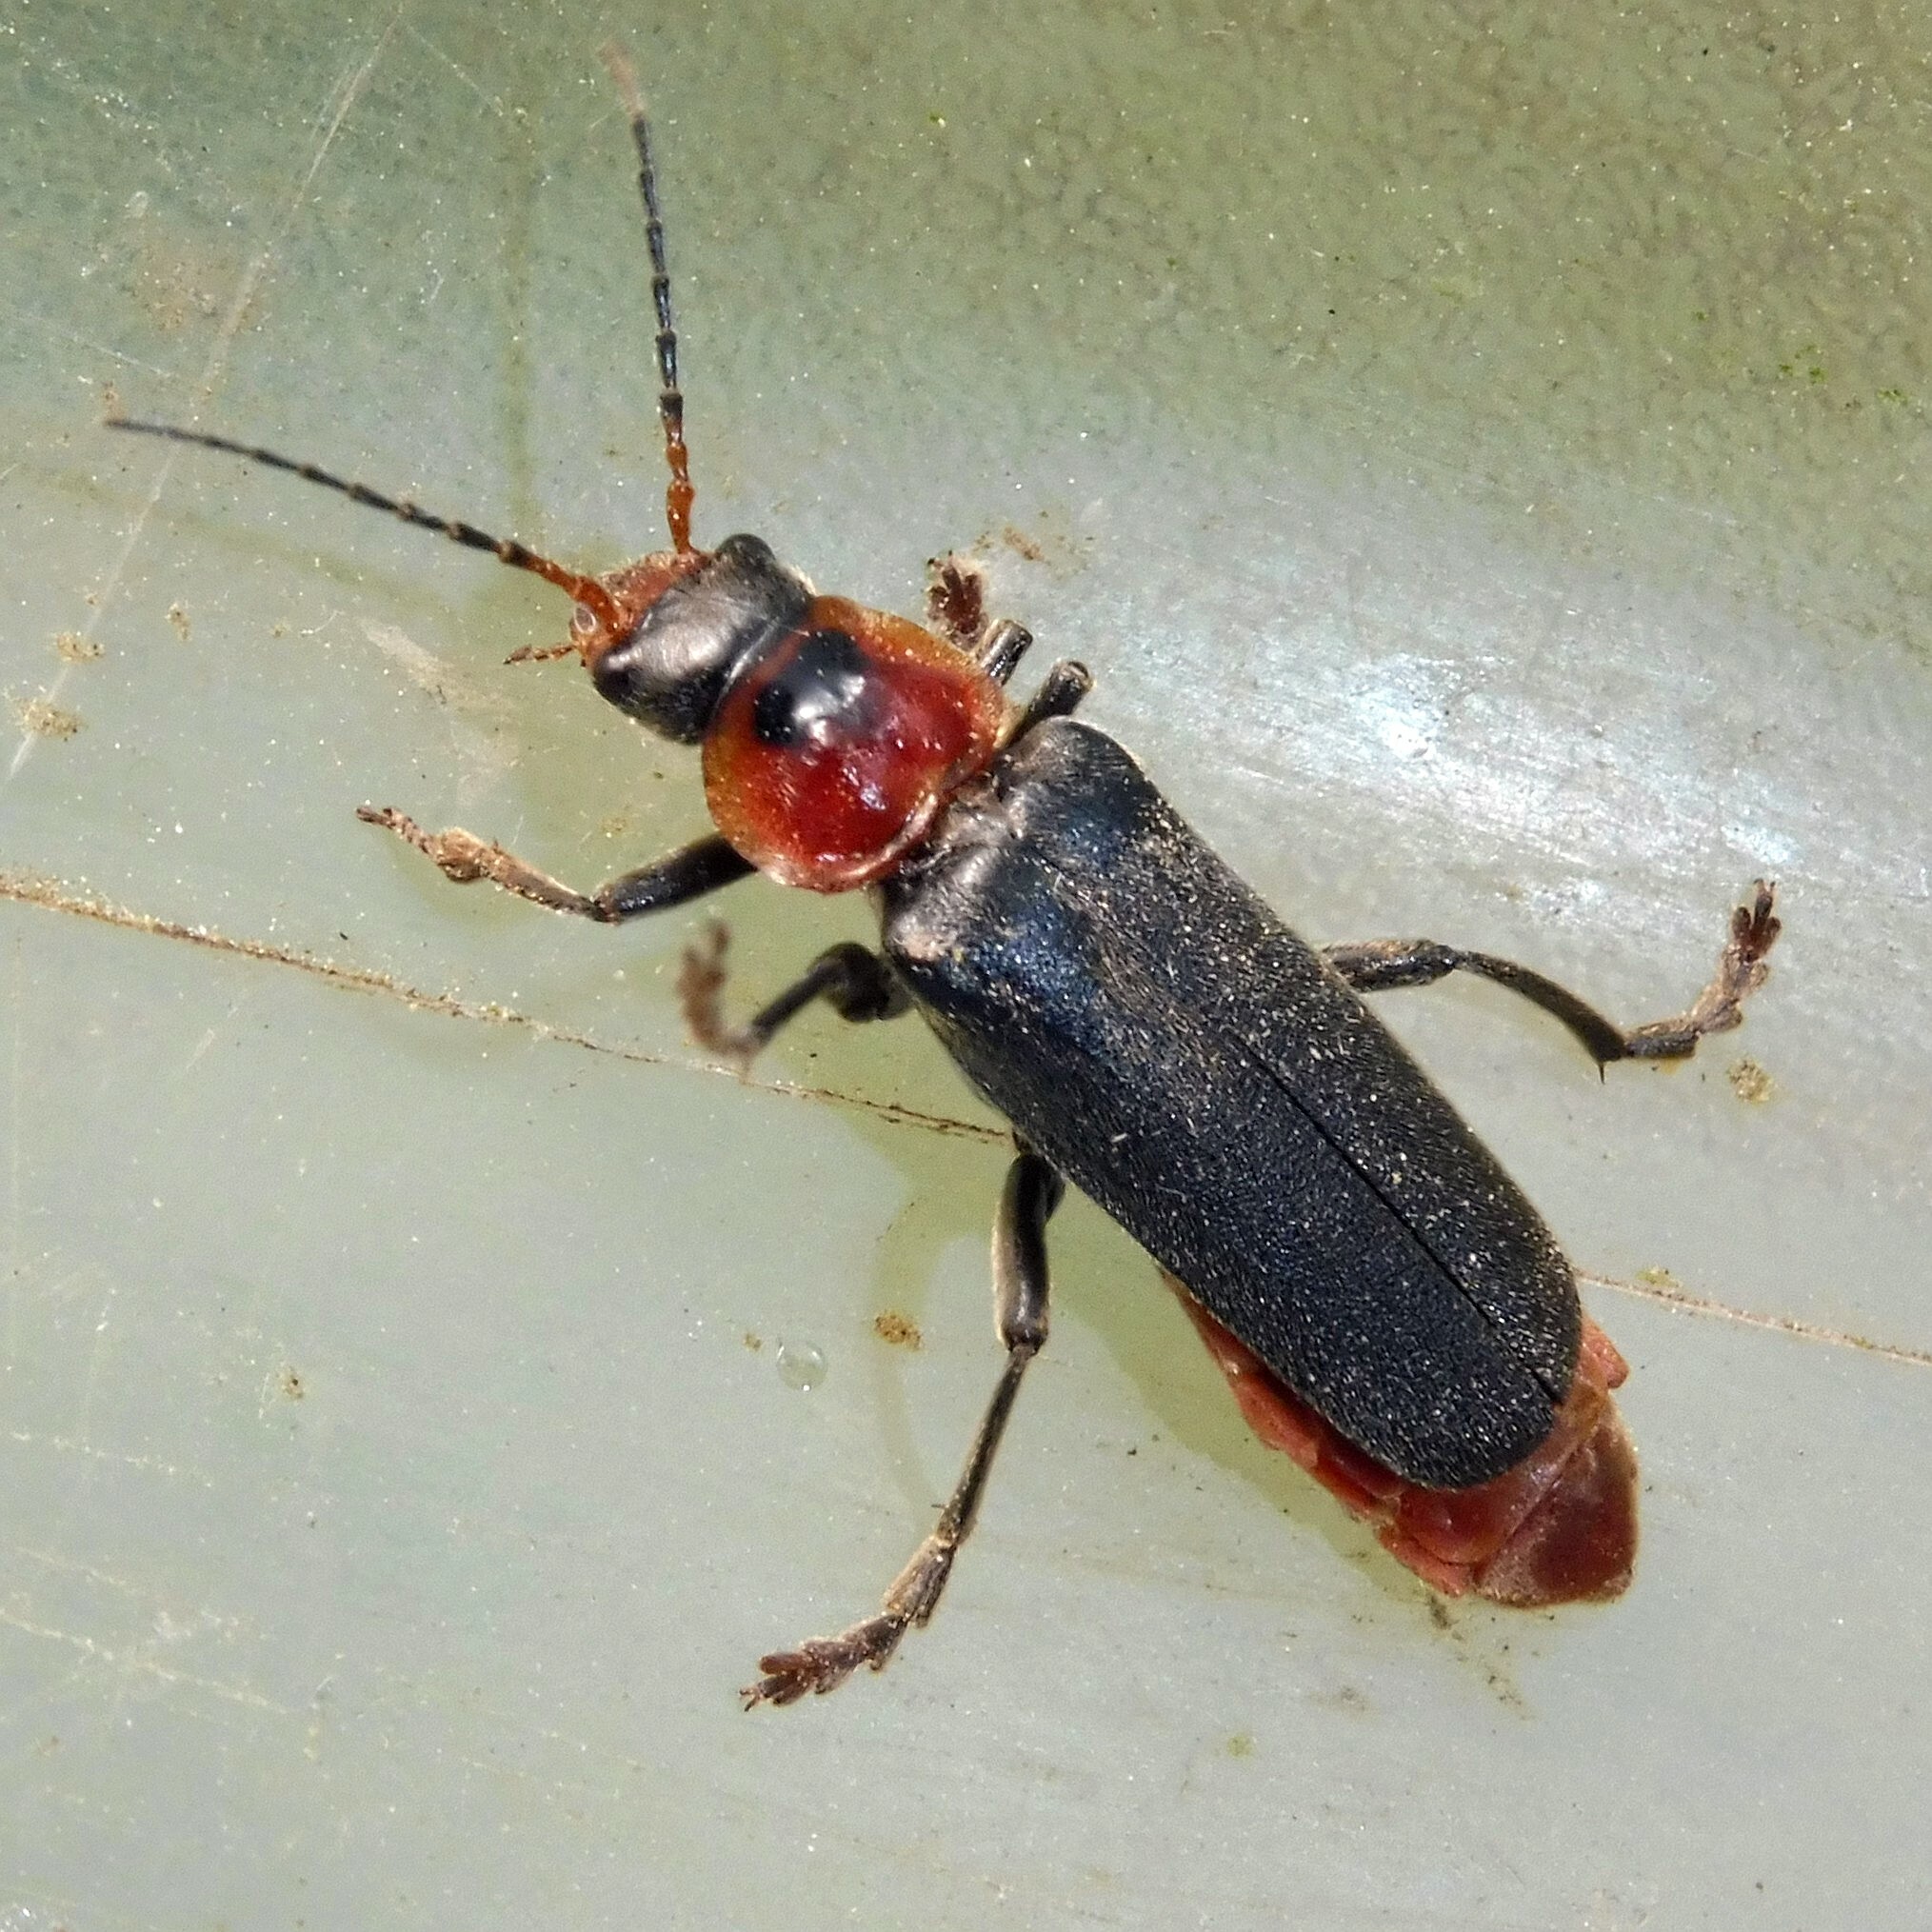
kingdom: Animalia
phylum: Arthropoda
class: Insecta
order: Coleoptera
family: Cantharidae
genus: Cantharis
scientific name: Cantharis fusca
